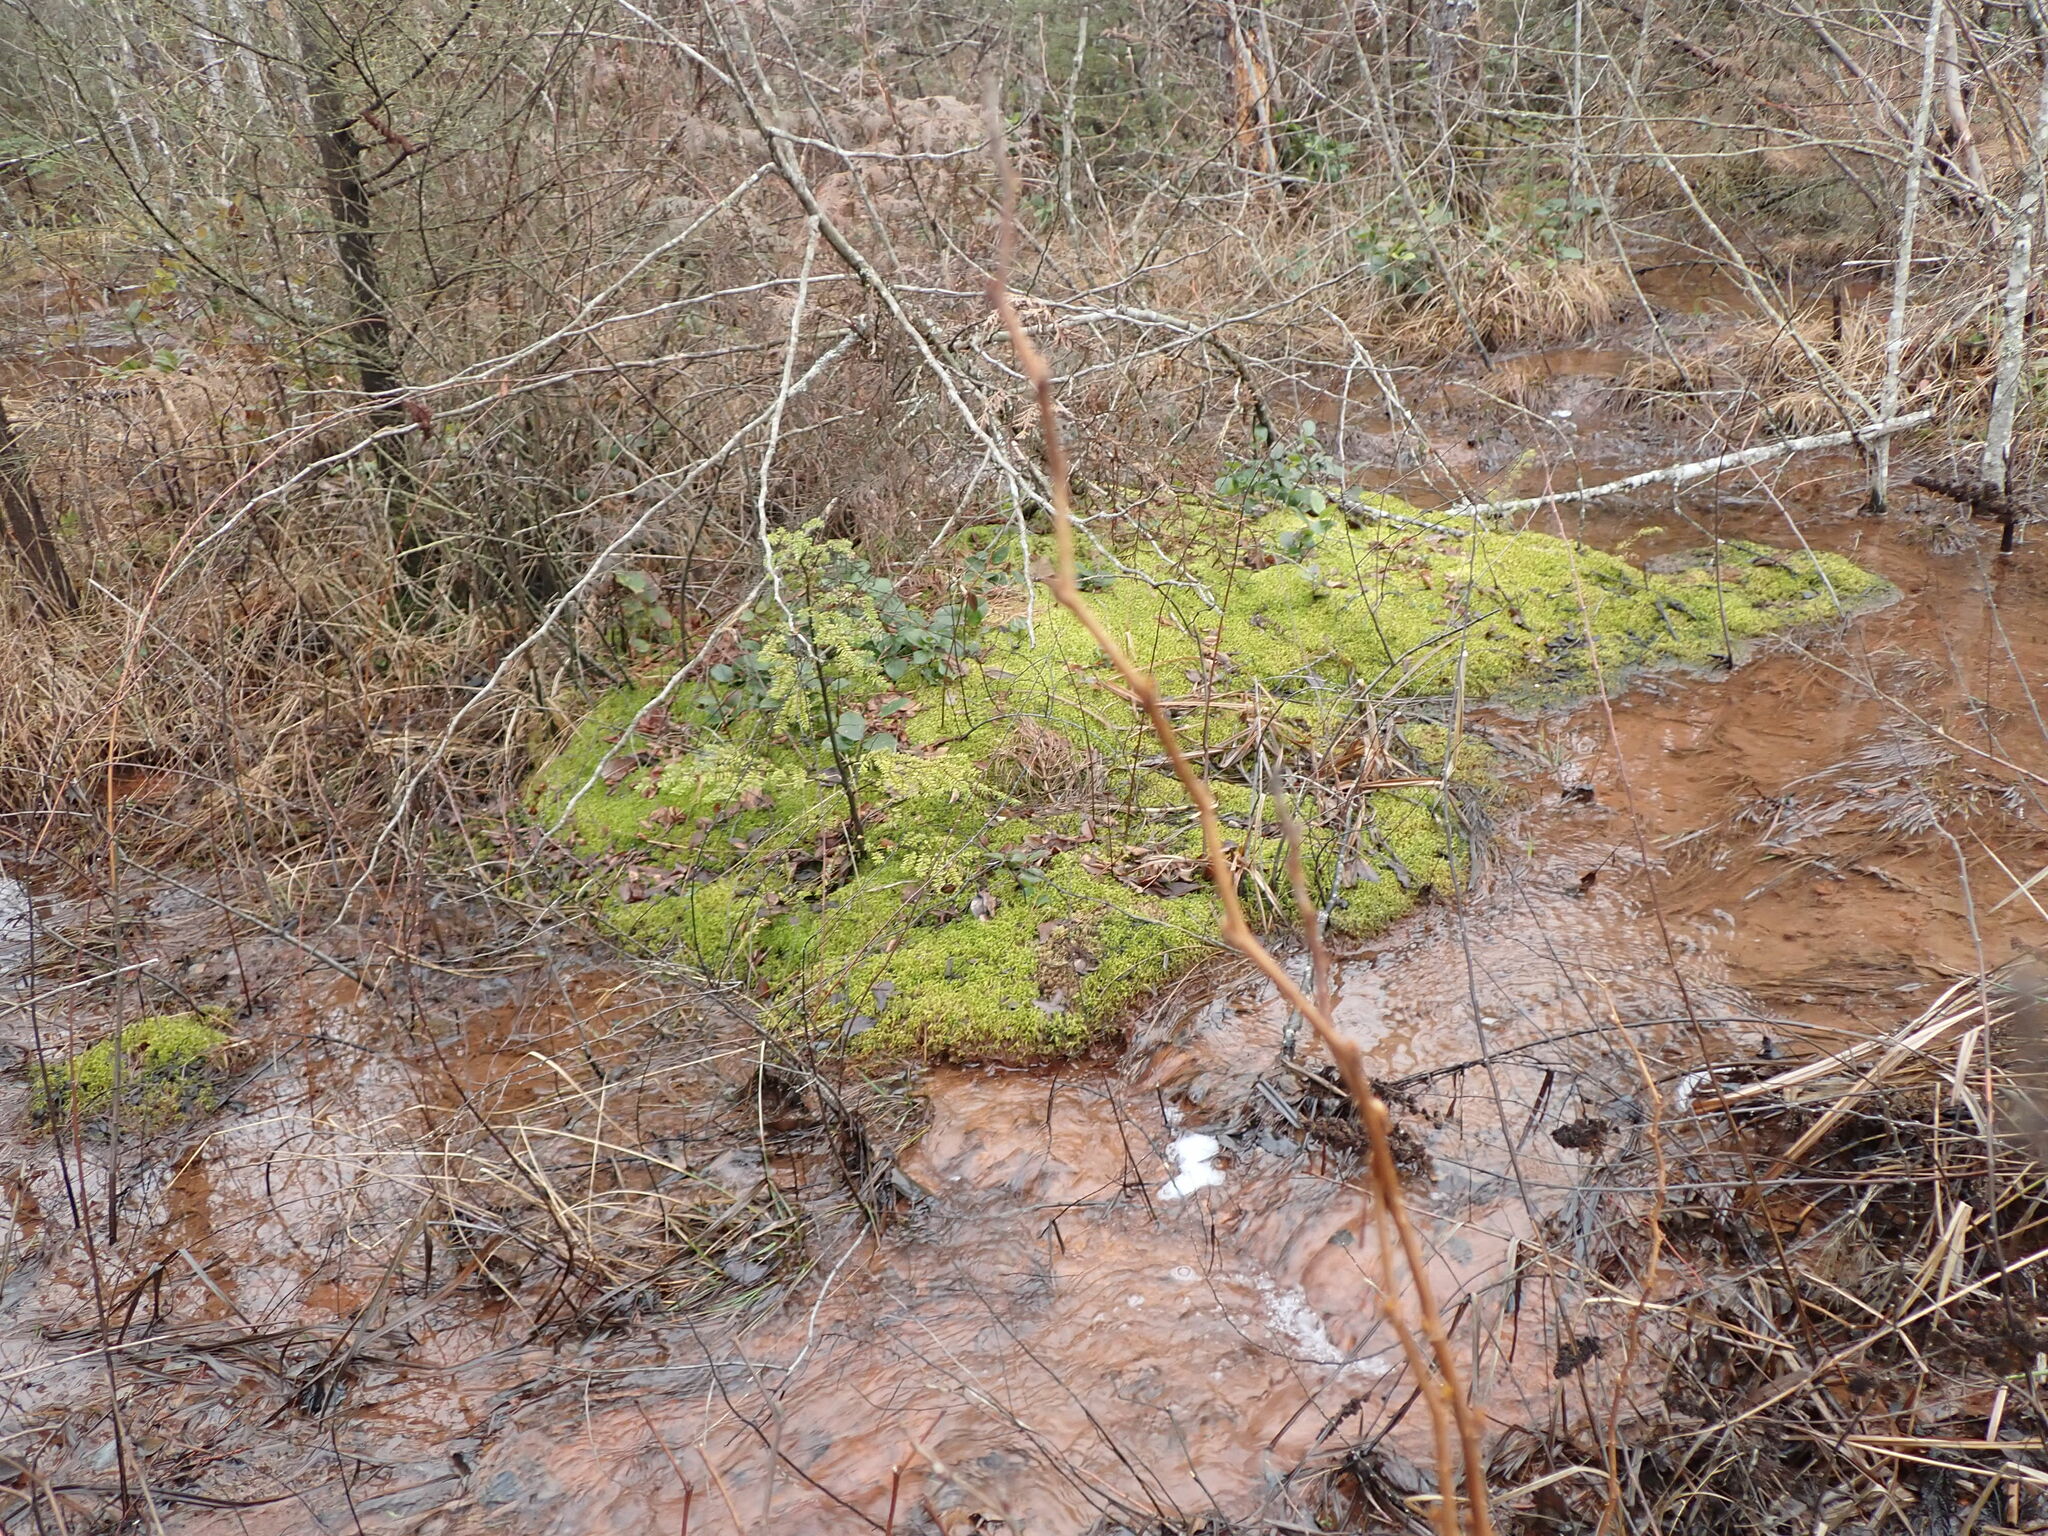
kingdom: Plantae
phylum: Bryophyta
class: Sphagnopsida
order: Sphagnales
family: Sphagnaceae
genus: Sphagnum
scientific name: Sphagnum fimbriatum
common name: Fringed peat moss
